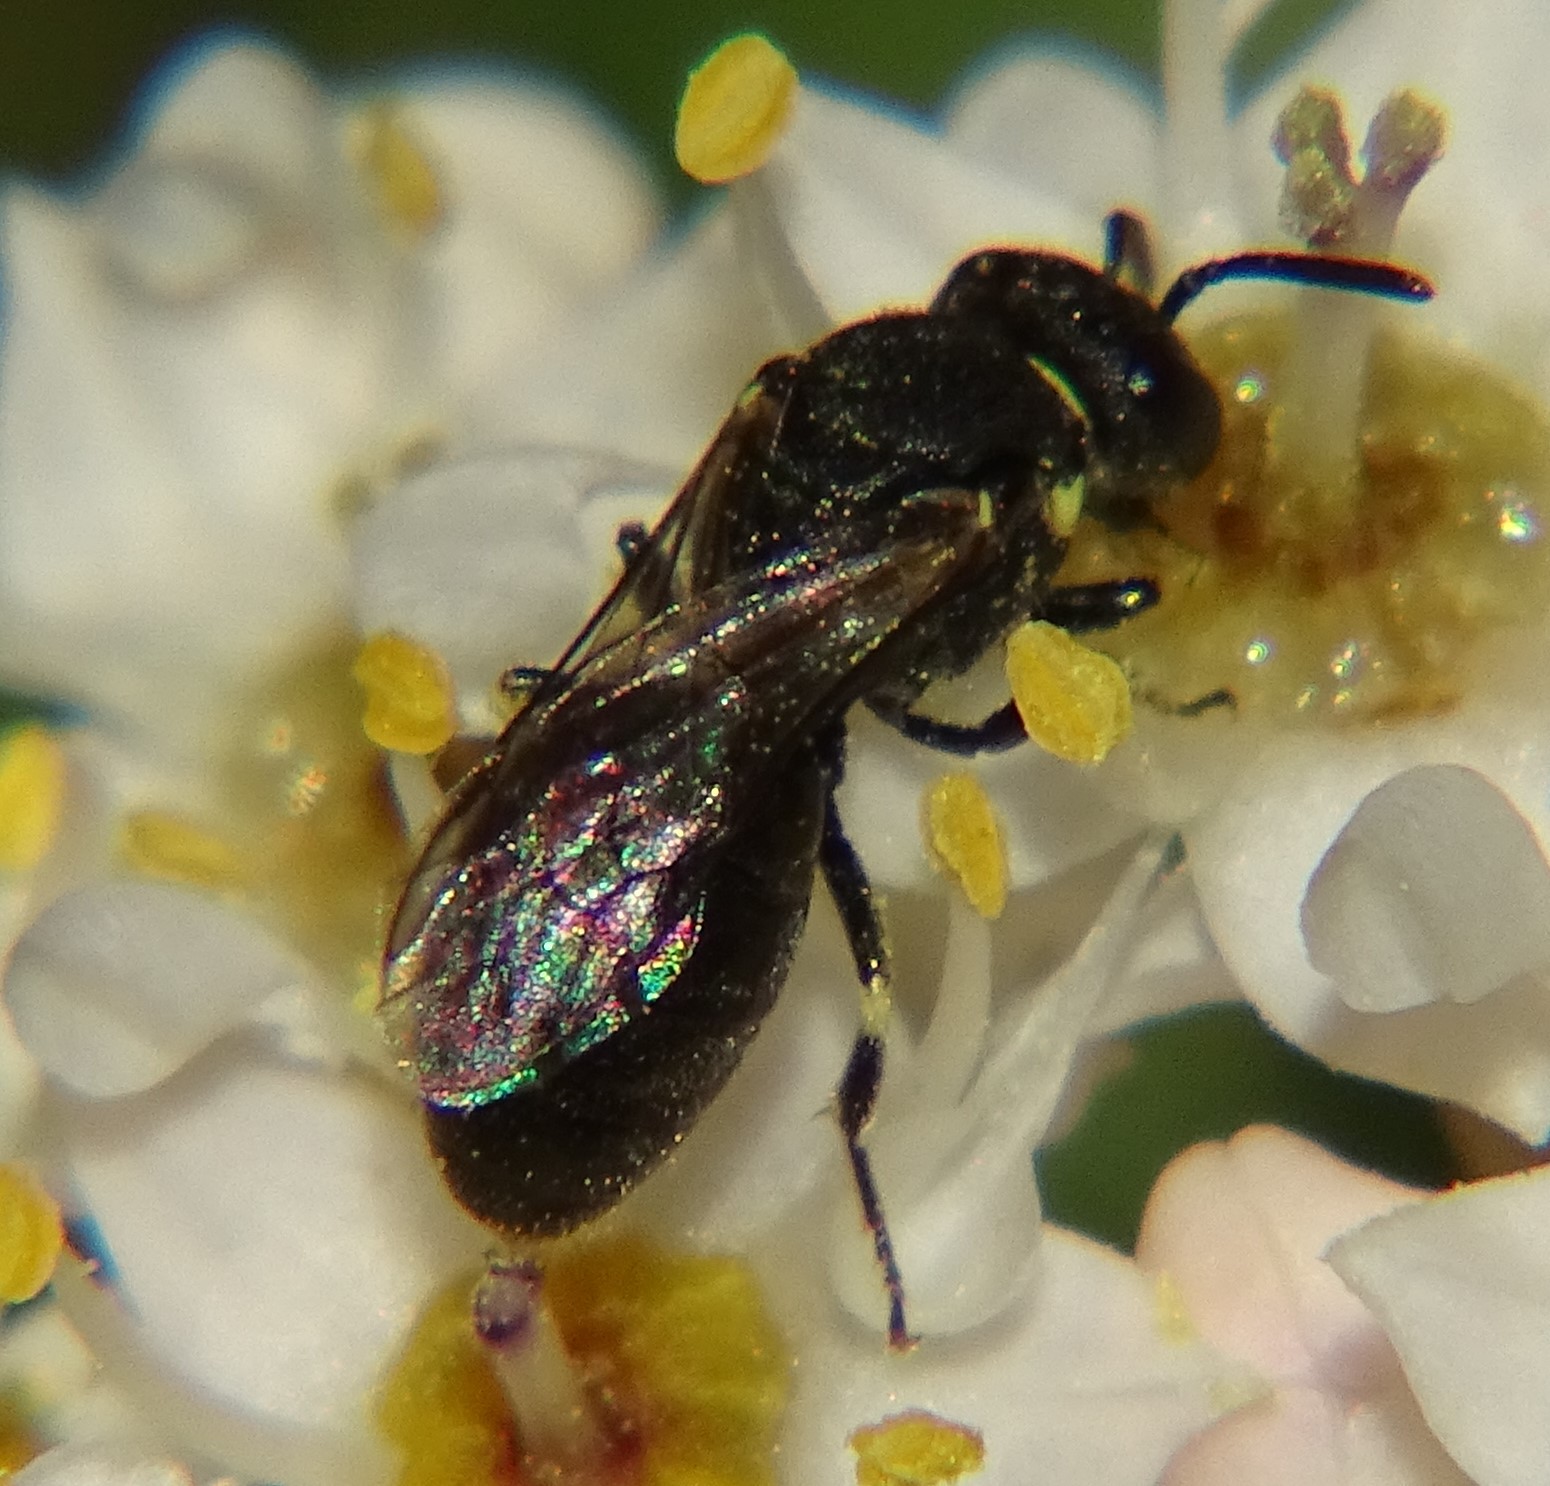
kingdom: Animalia
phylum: Arthropoda
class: Insecta
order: Hymenoptera
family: Colletidae
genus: Hylaeus
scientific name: Hylaeus
